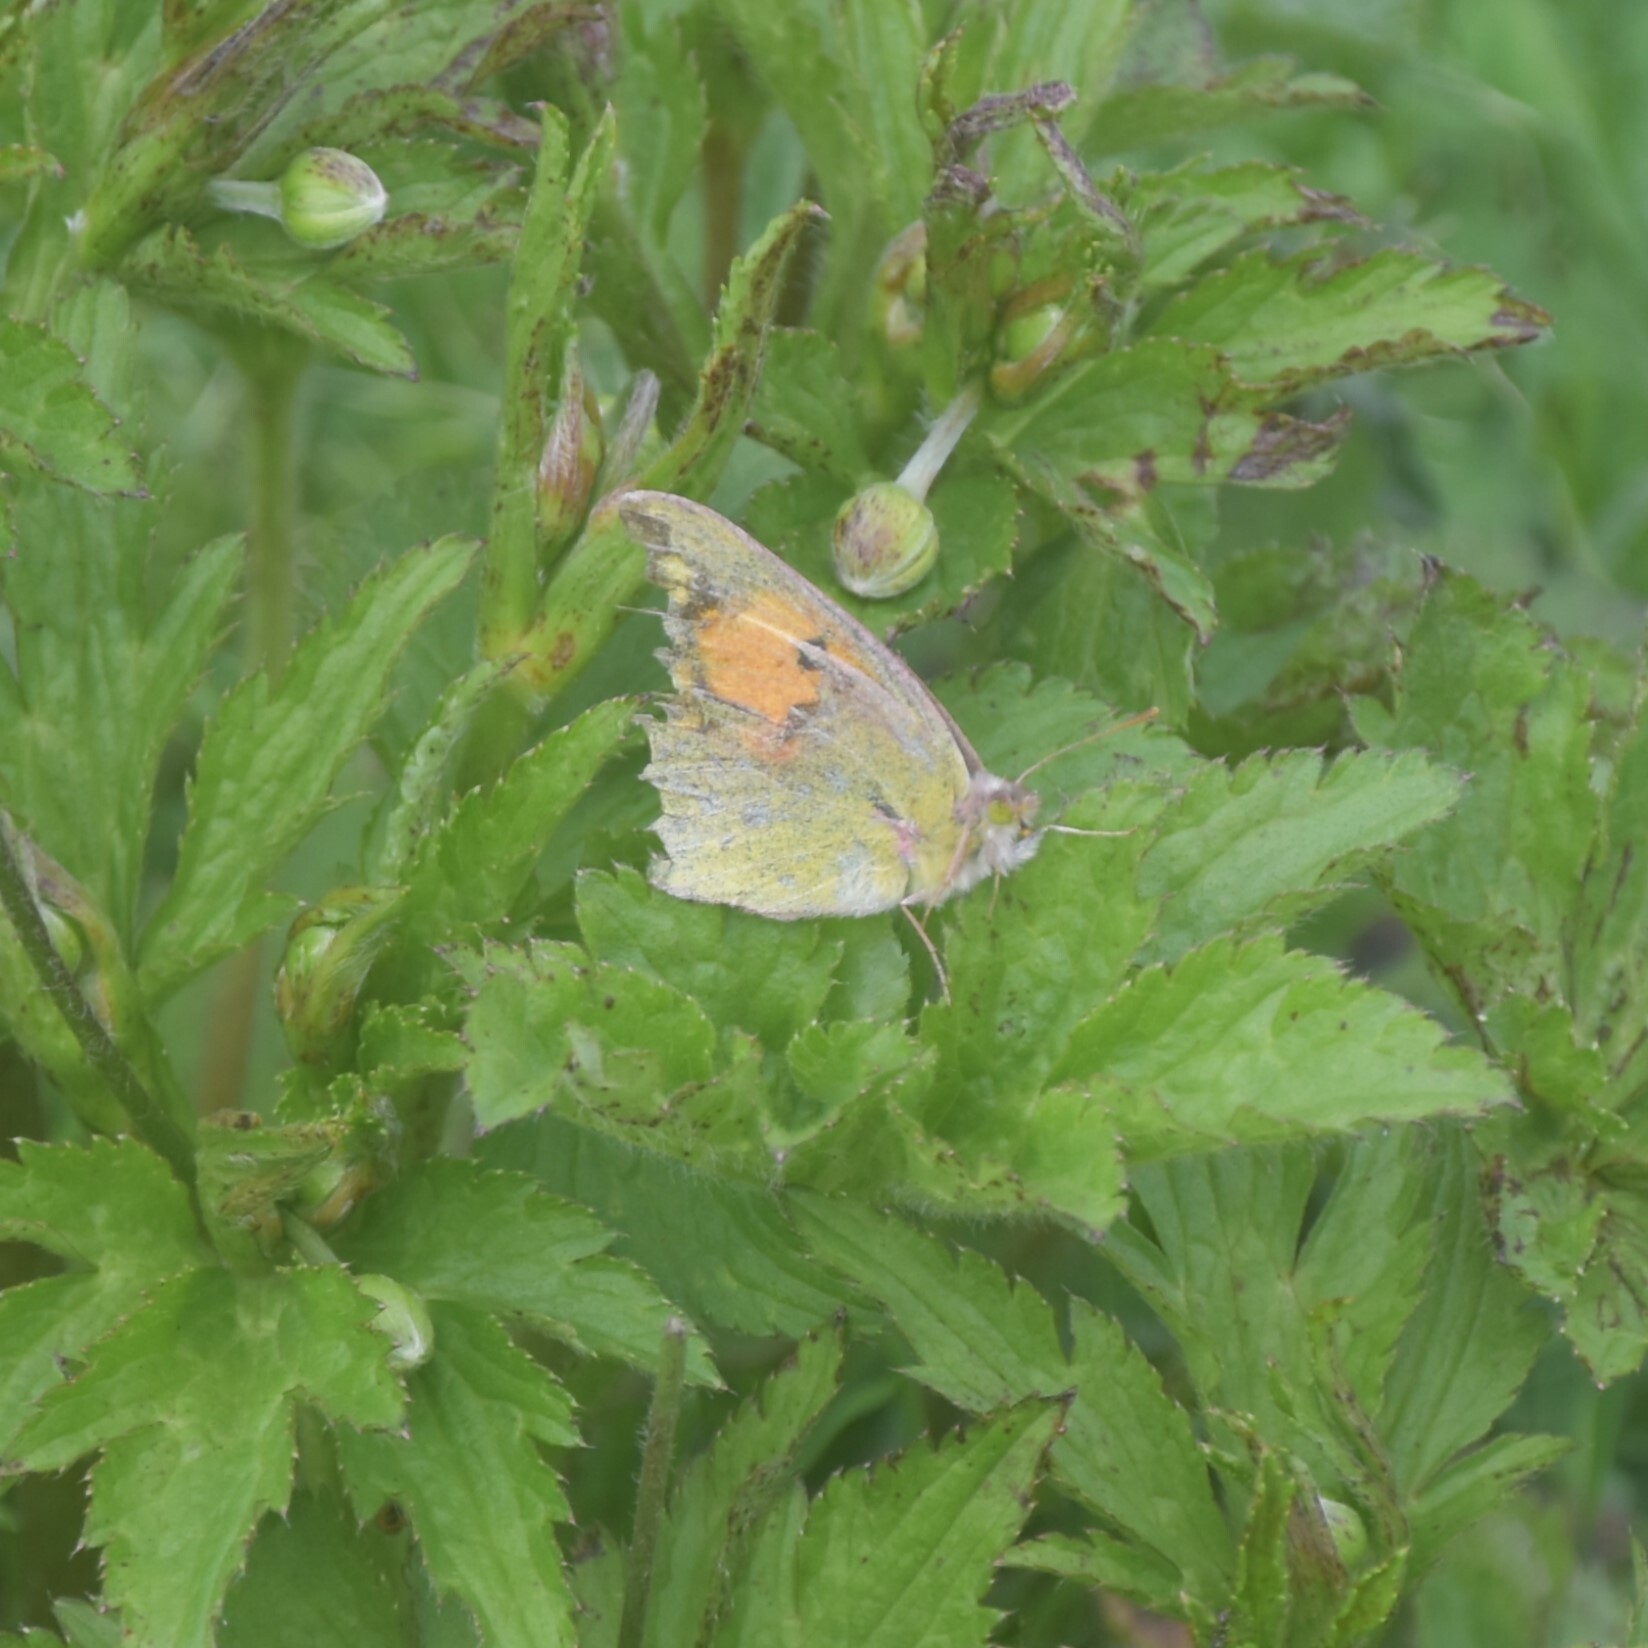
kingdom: Animalia
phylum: Arthropoda
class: Insecta
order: Lepidoptera
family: Pieridae
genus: Colias
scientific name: Colias fieldii
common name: Dark clouded yellow
